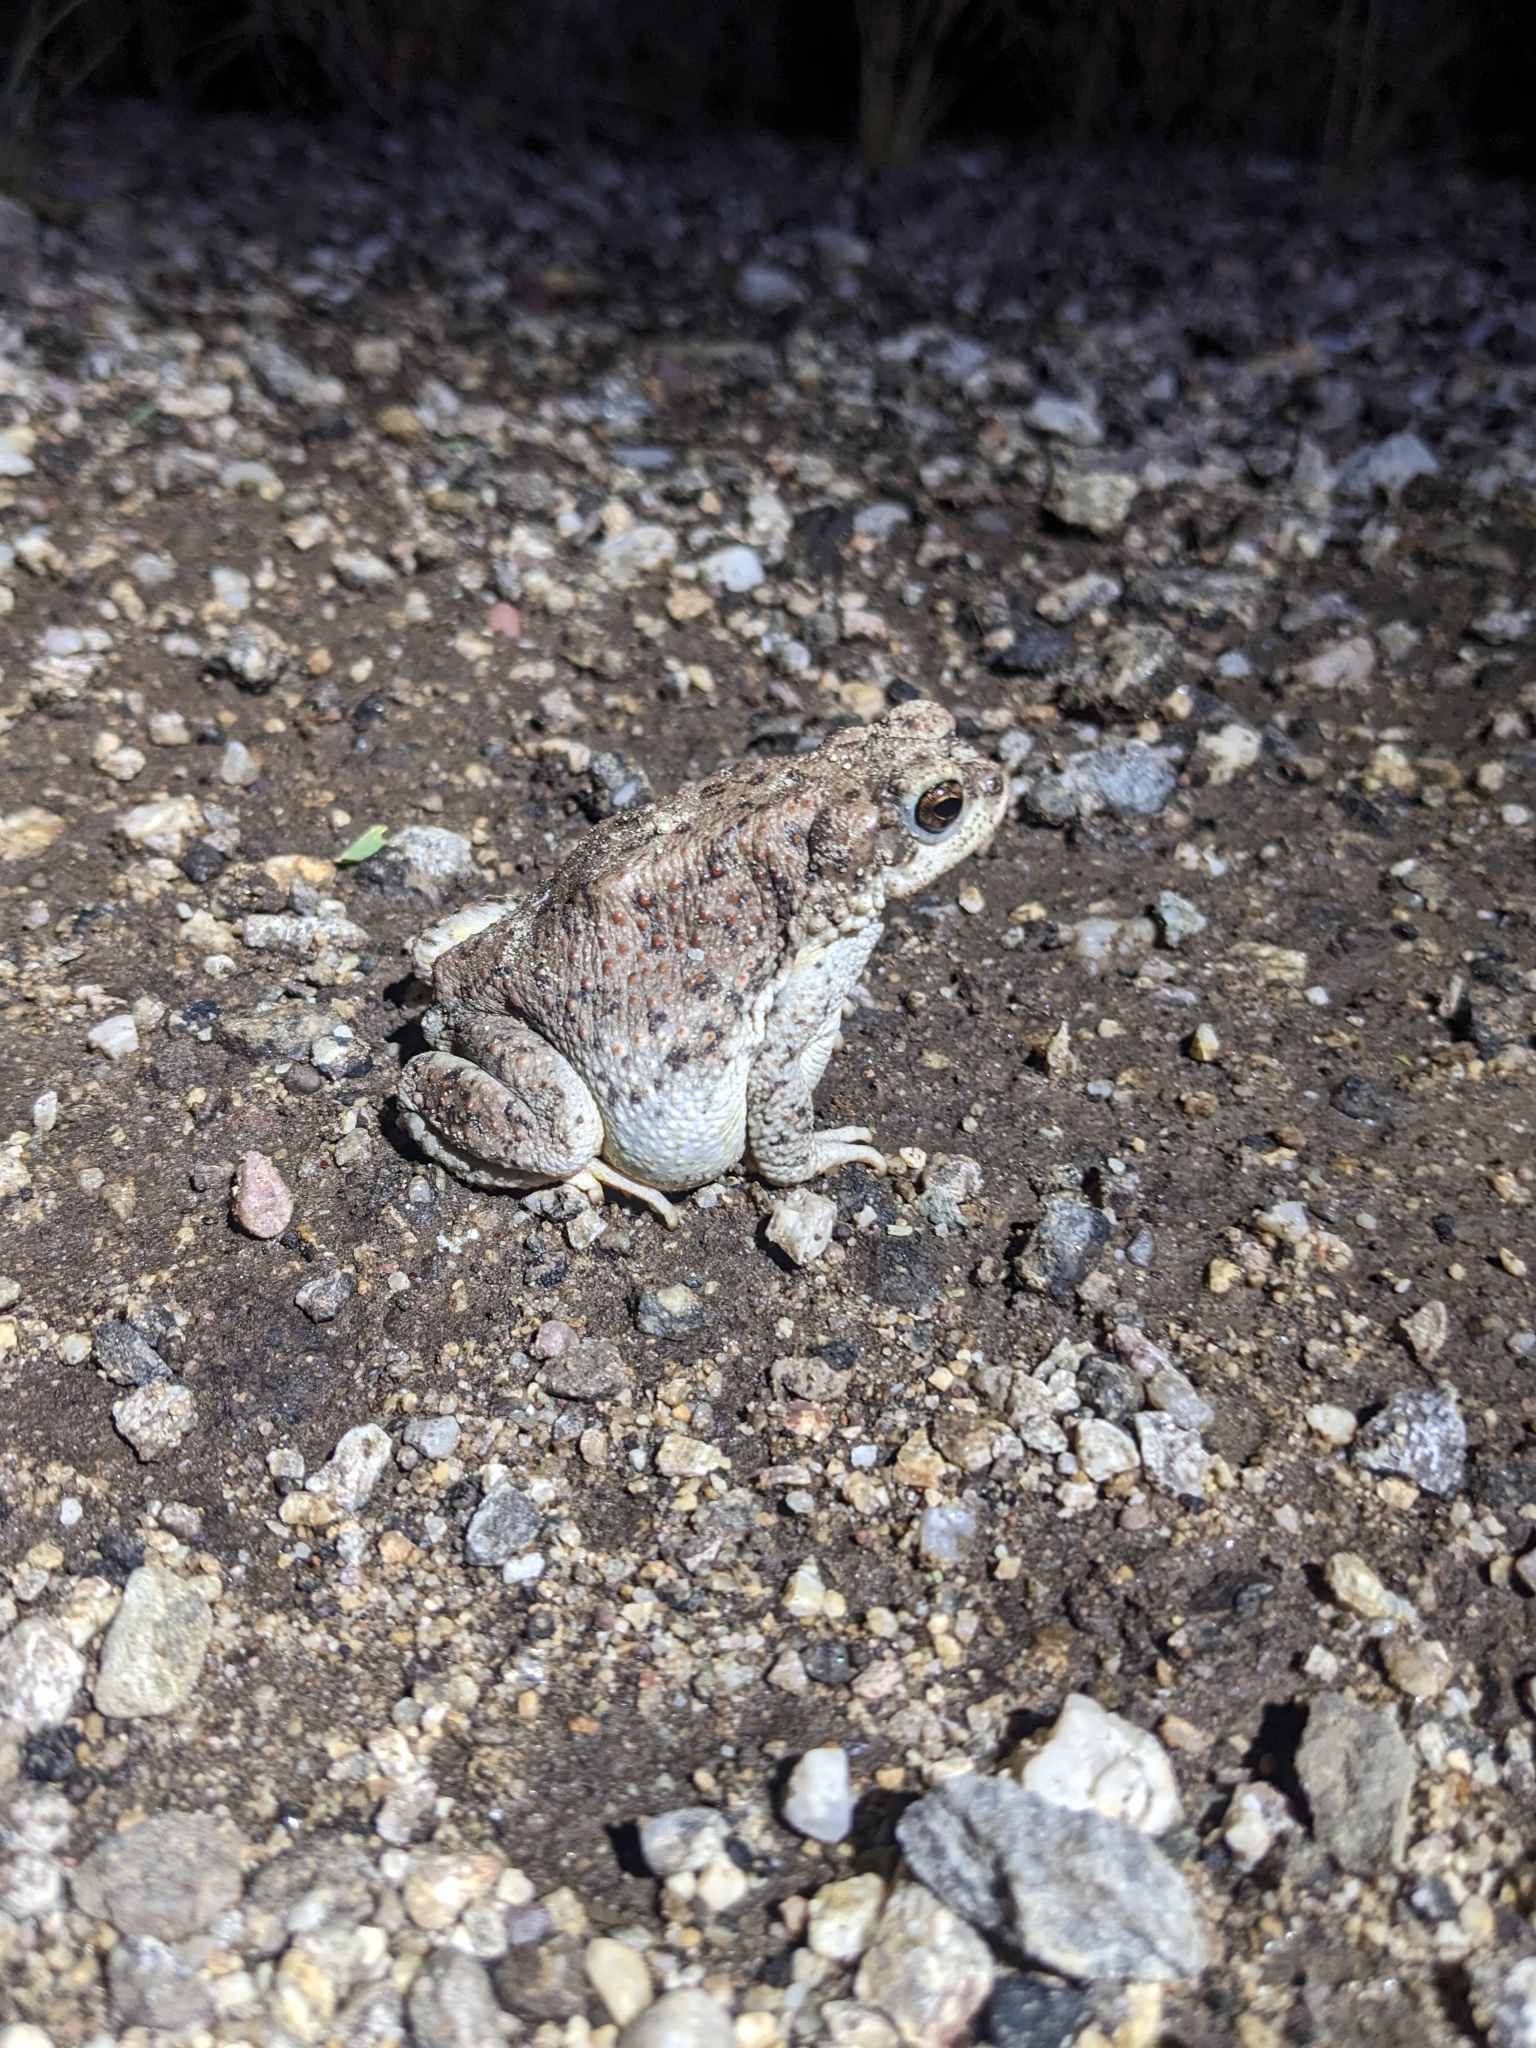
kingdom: Animalia
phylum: Chordata
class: Amphibia
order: Anura
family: Bufonidae
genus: Anaxyrus
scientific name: Anaxyrus punctatus
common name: Red-spotted toad
